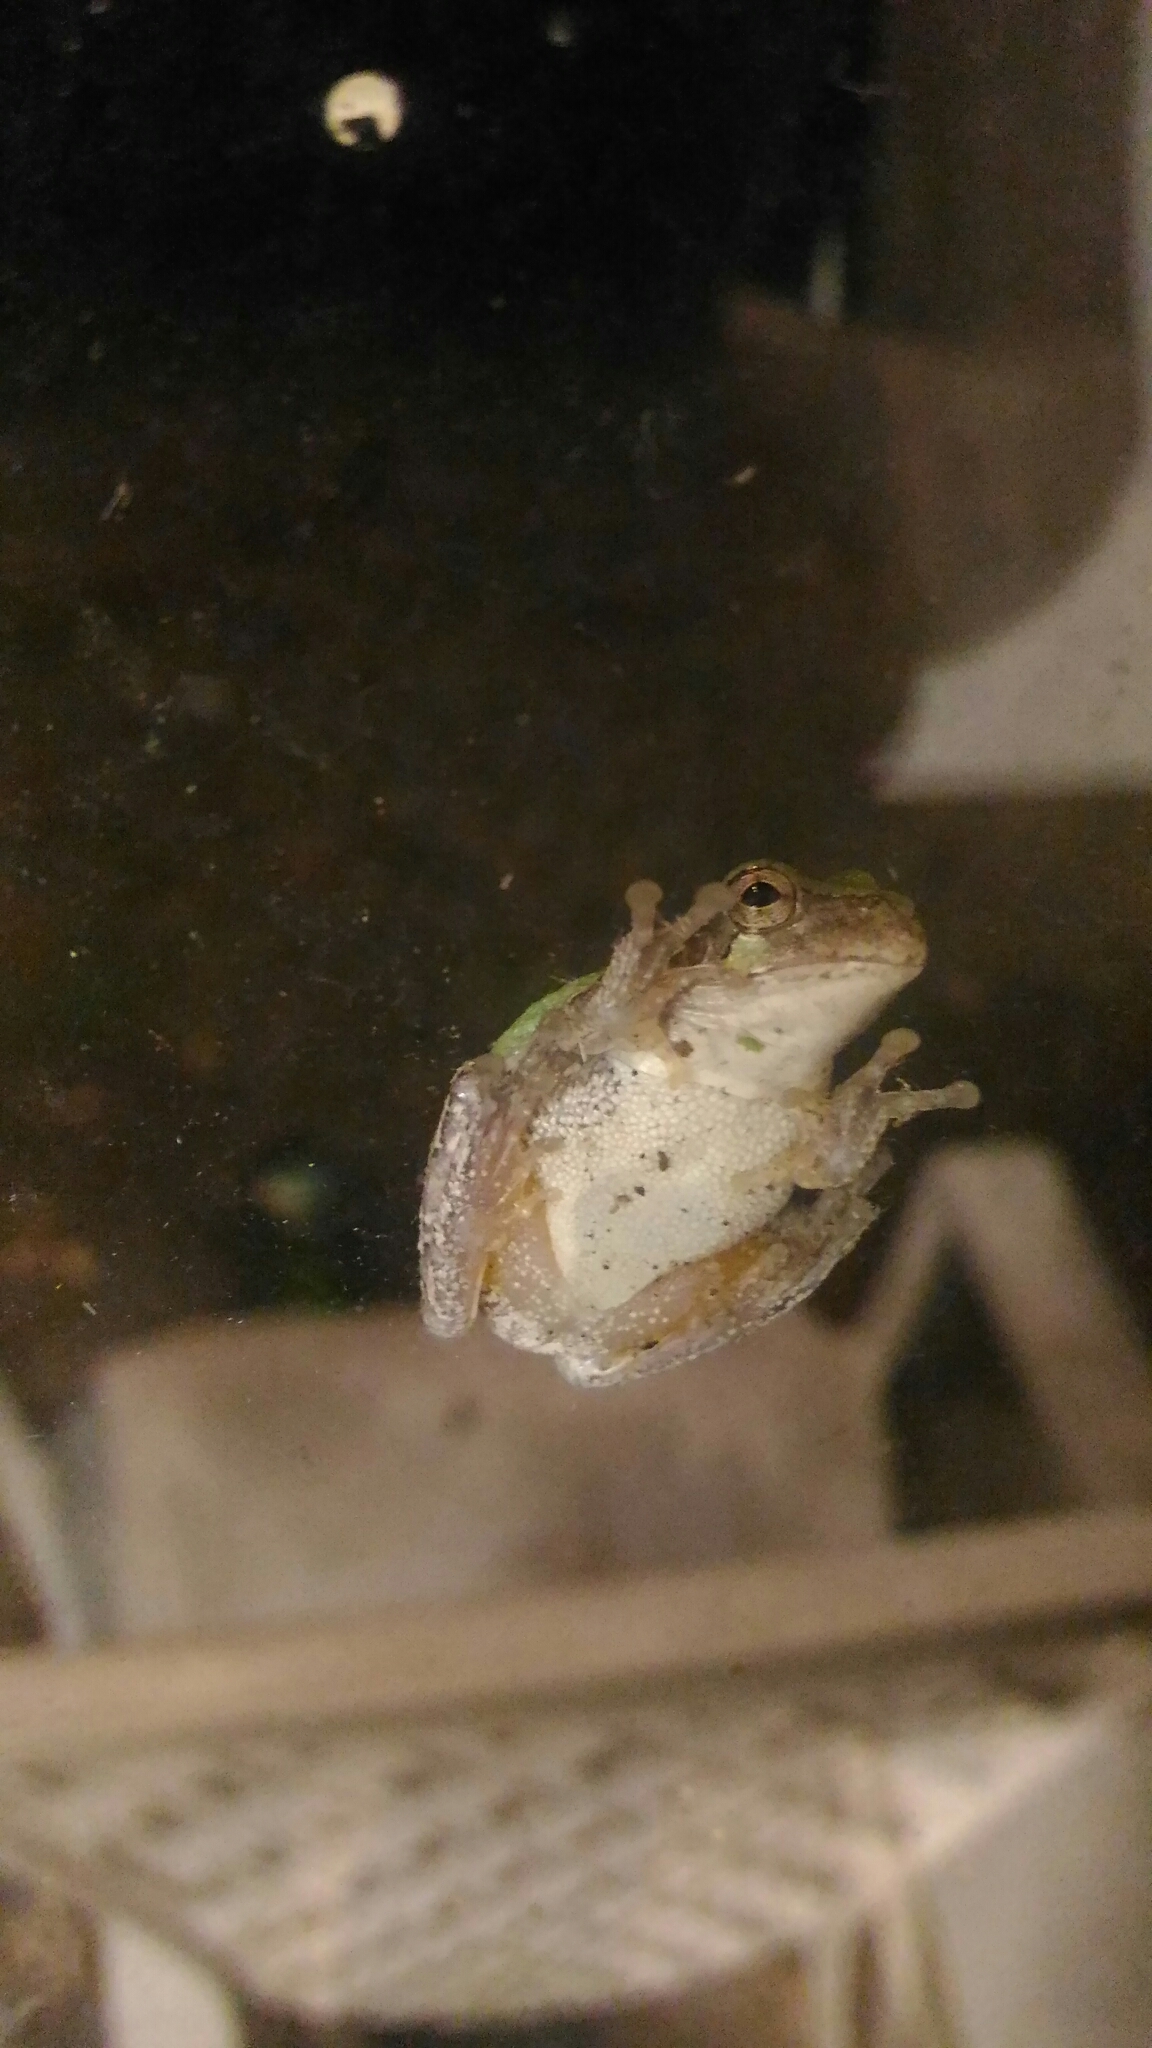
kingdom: Animalia
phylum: Chordata
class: Amphibia
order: Anura
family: Hylidae
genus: Hyla
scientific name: Hyla
